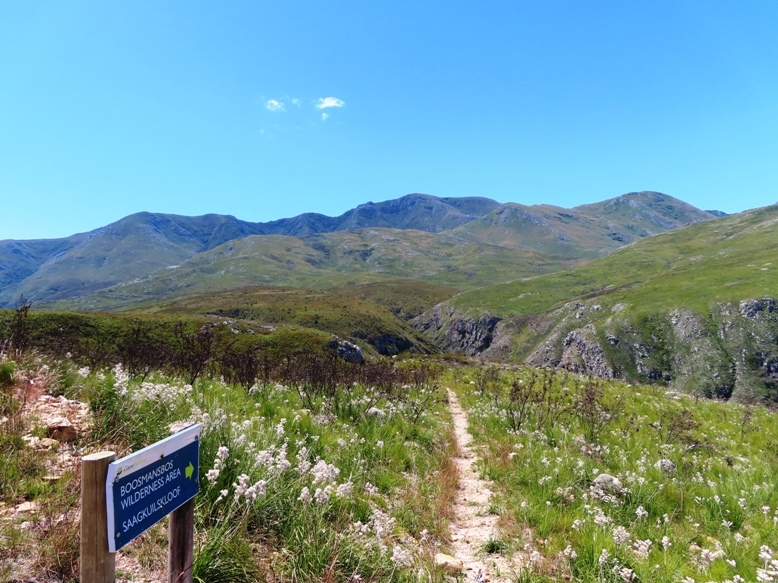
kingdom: Plantae
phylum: Tracheophyta
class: Liliopsida
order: Asparagales
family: Lanariaceae
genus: Lanaria
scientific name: Lanaria lanata
